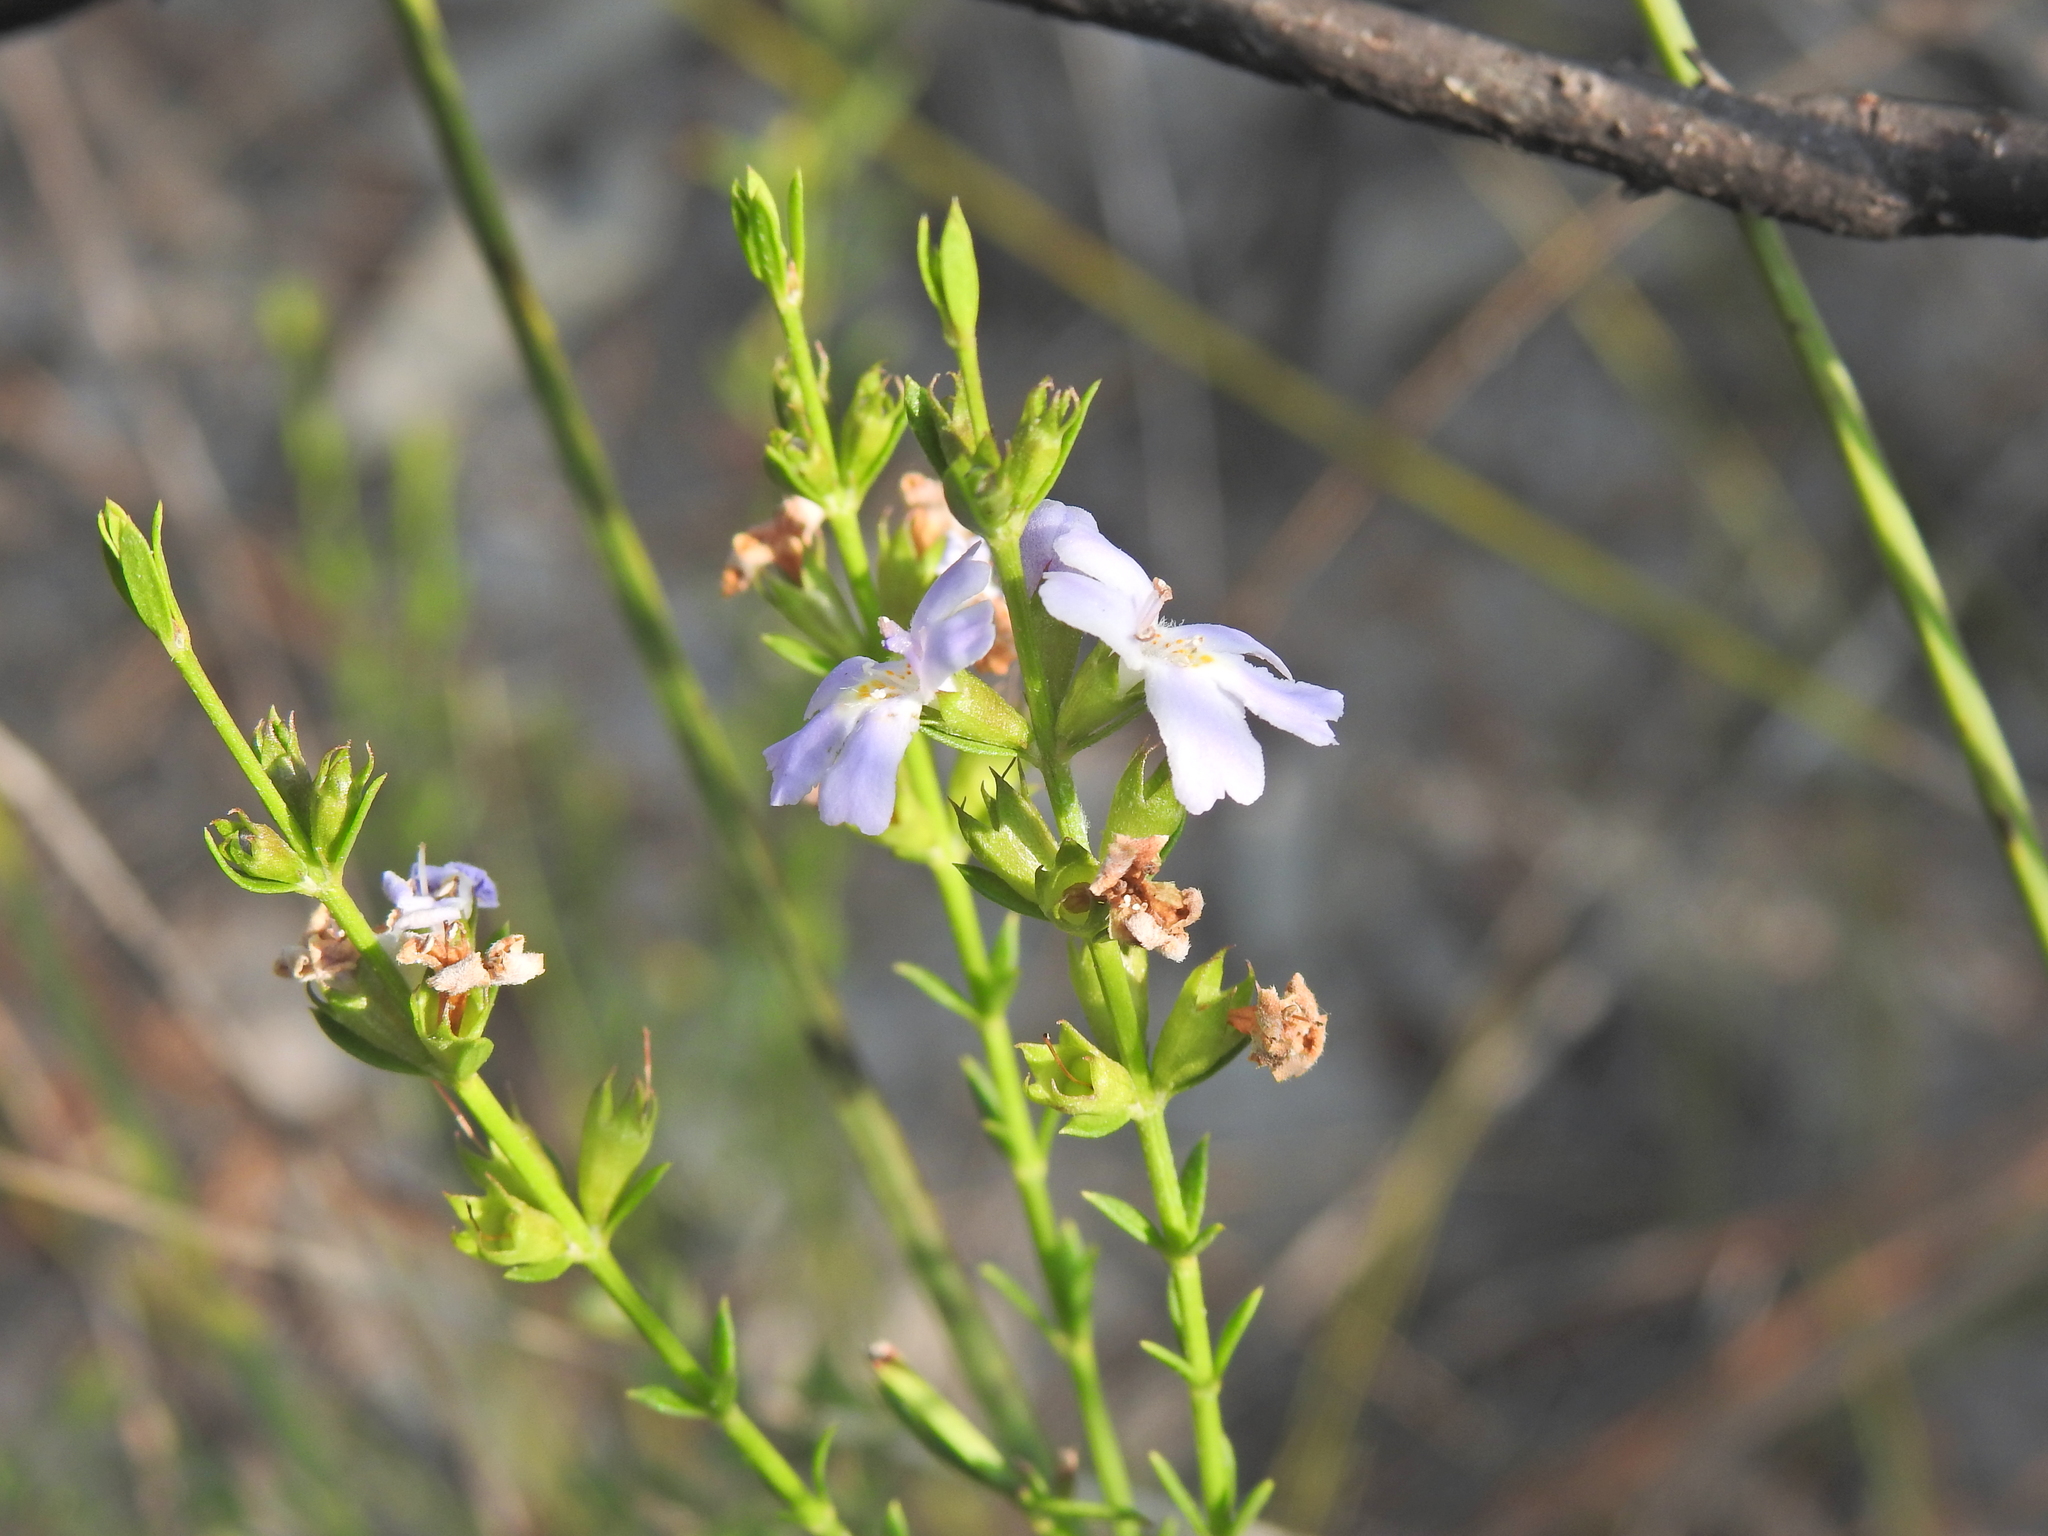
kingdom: Plantae
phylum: Tracheophyta
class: Magnoliopsida
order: Lamiales
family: Lamiaceae
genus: Westringia
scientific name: Westringia tenuicaulis
